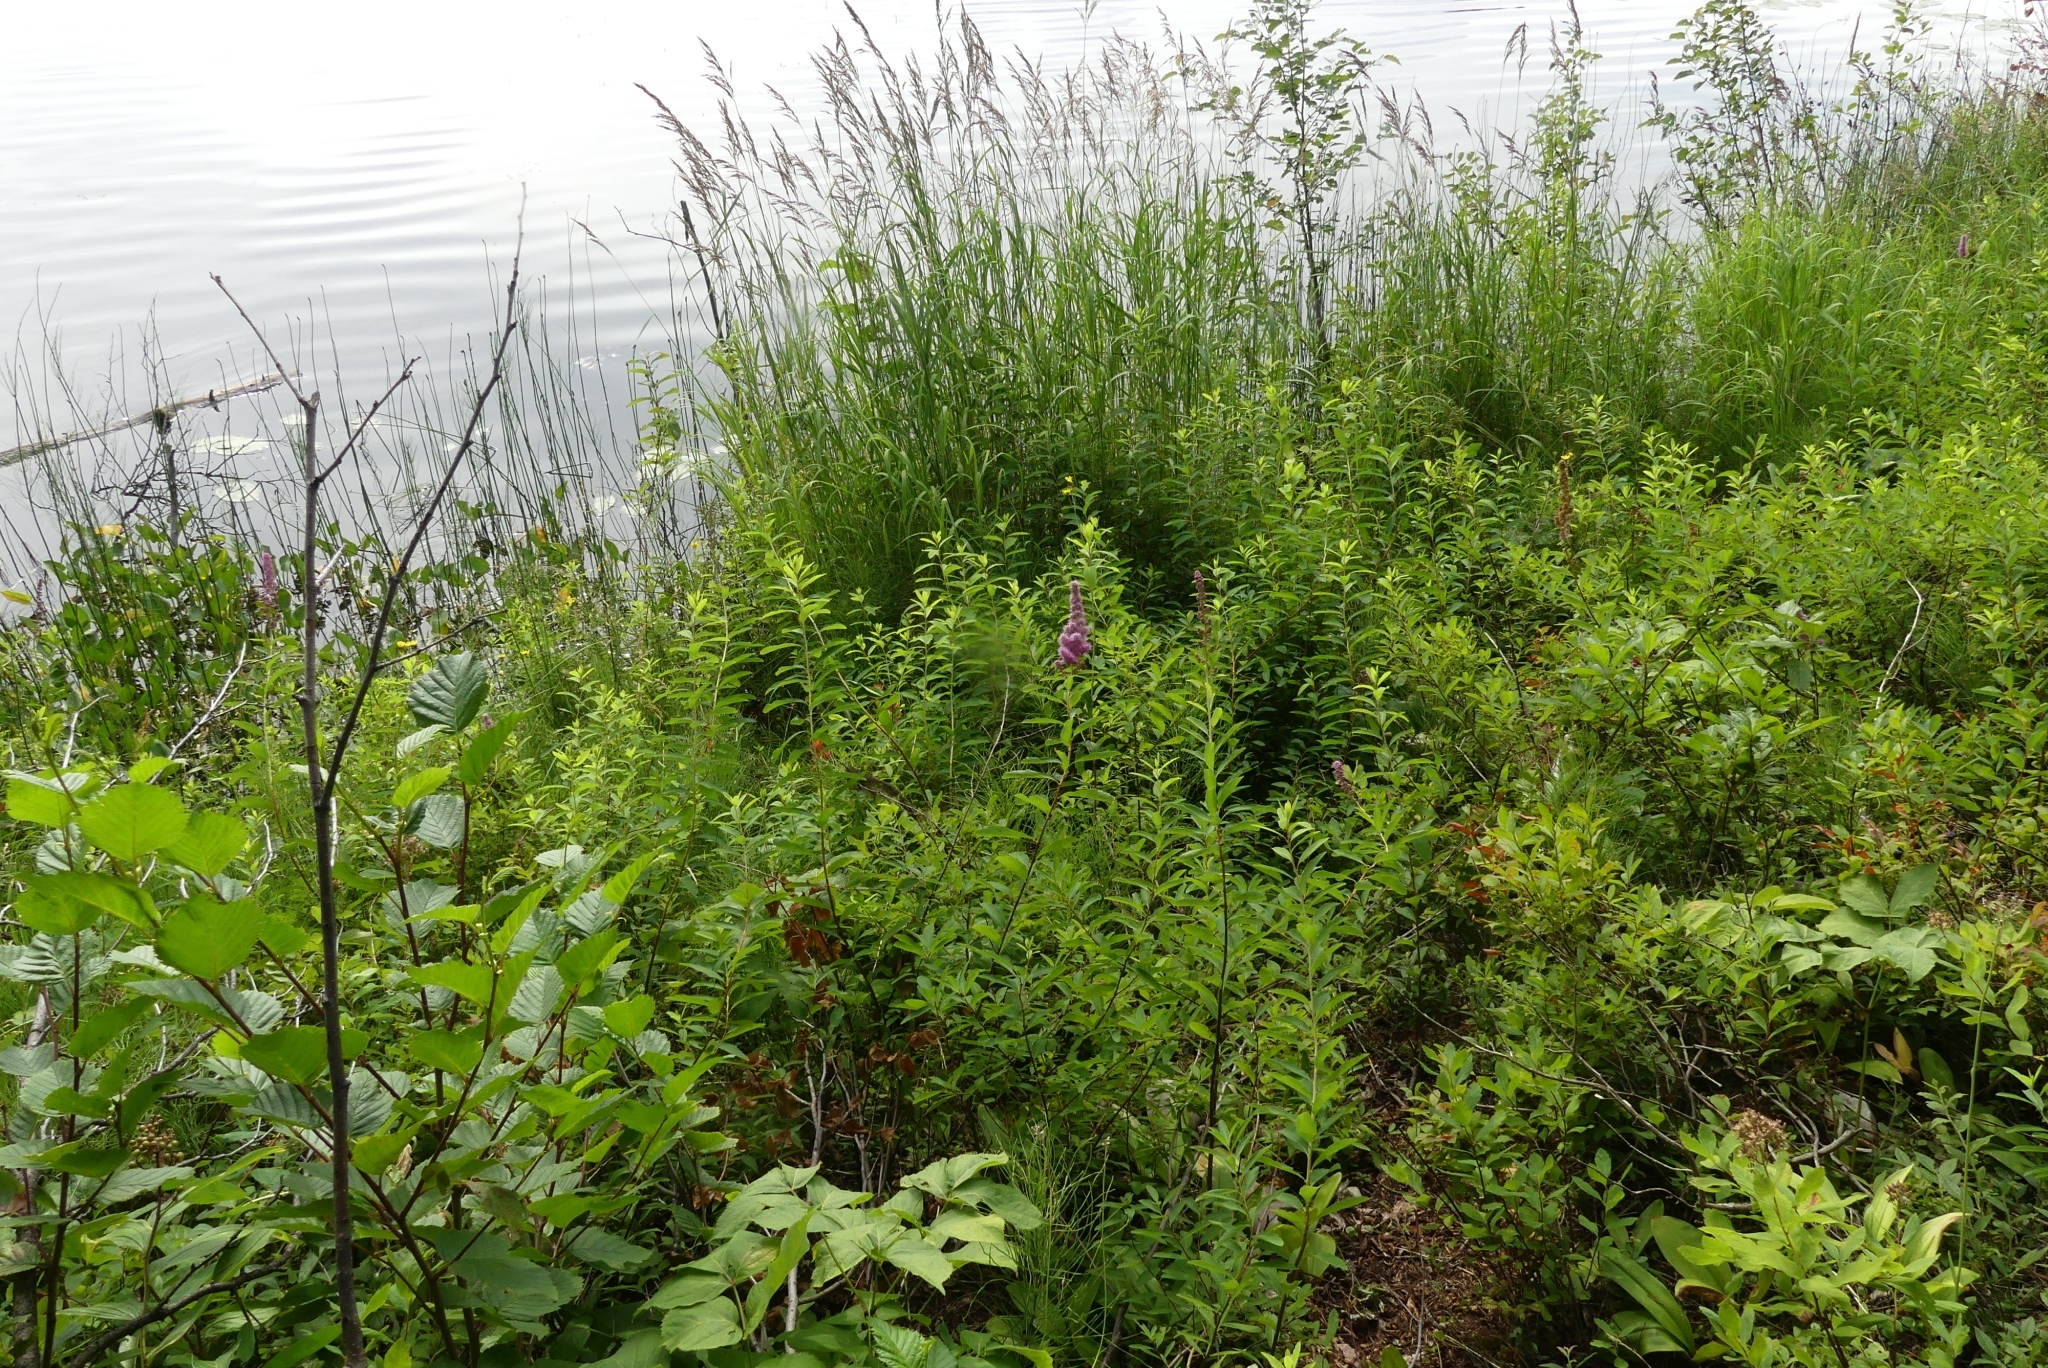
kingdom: Plantae
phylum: Tracheophyta
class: Magnoliopsida
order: Rosales
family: Rosaceae
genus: Spiraea
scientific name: Spiraea douglasii
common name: Steeplebush
